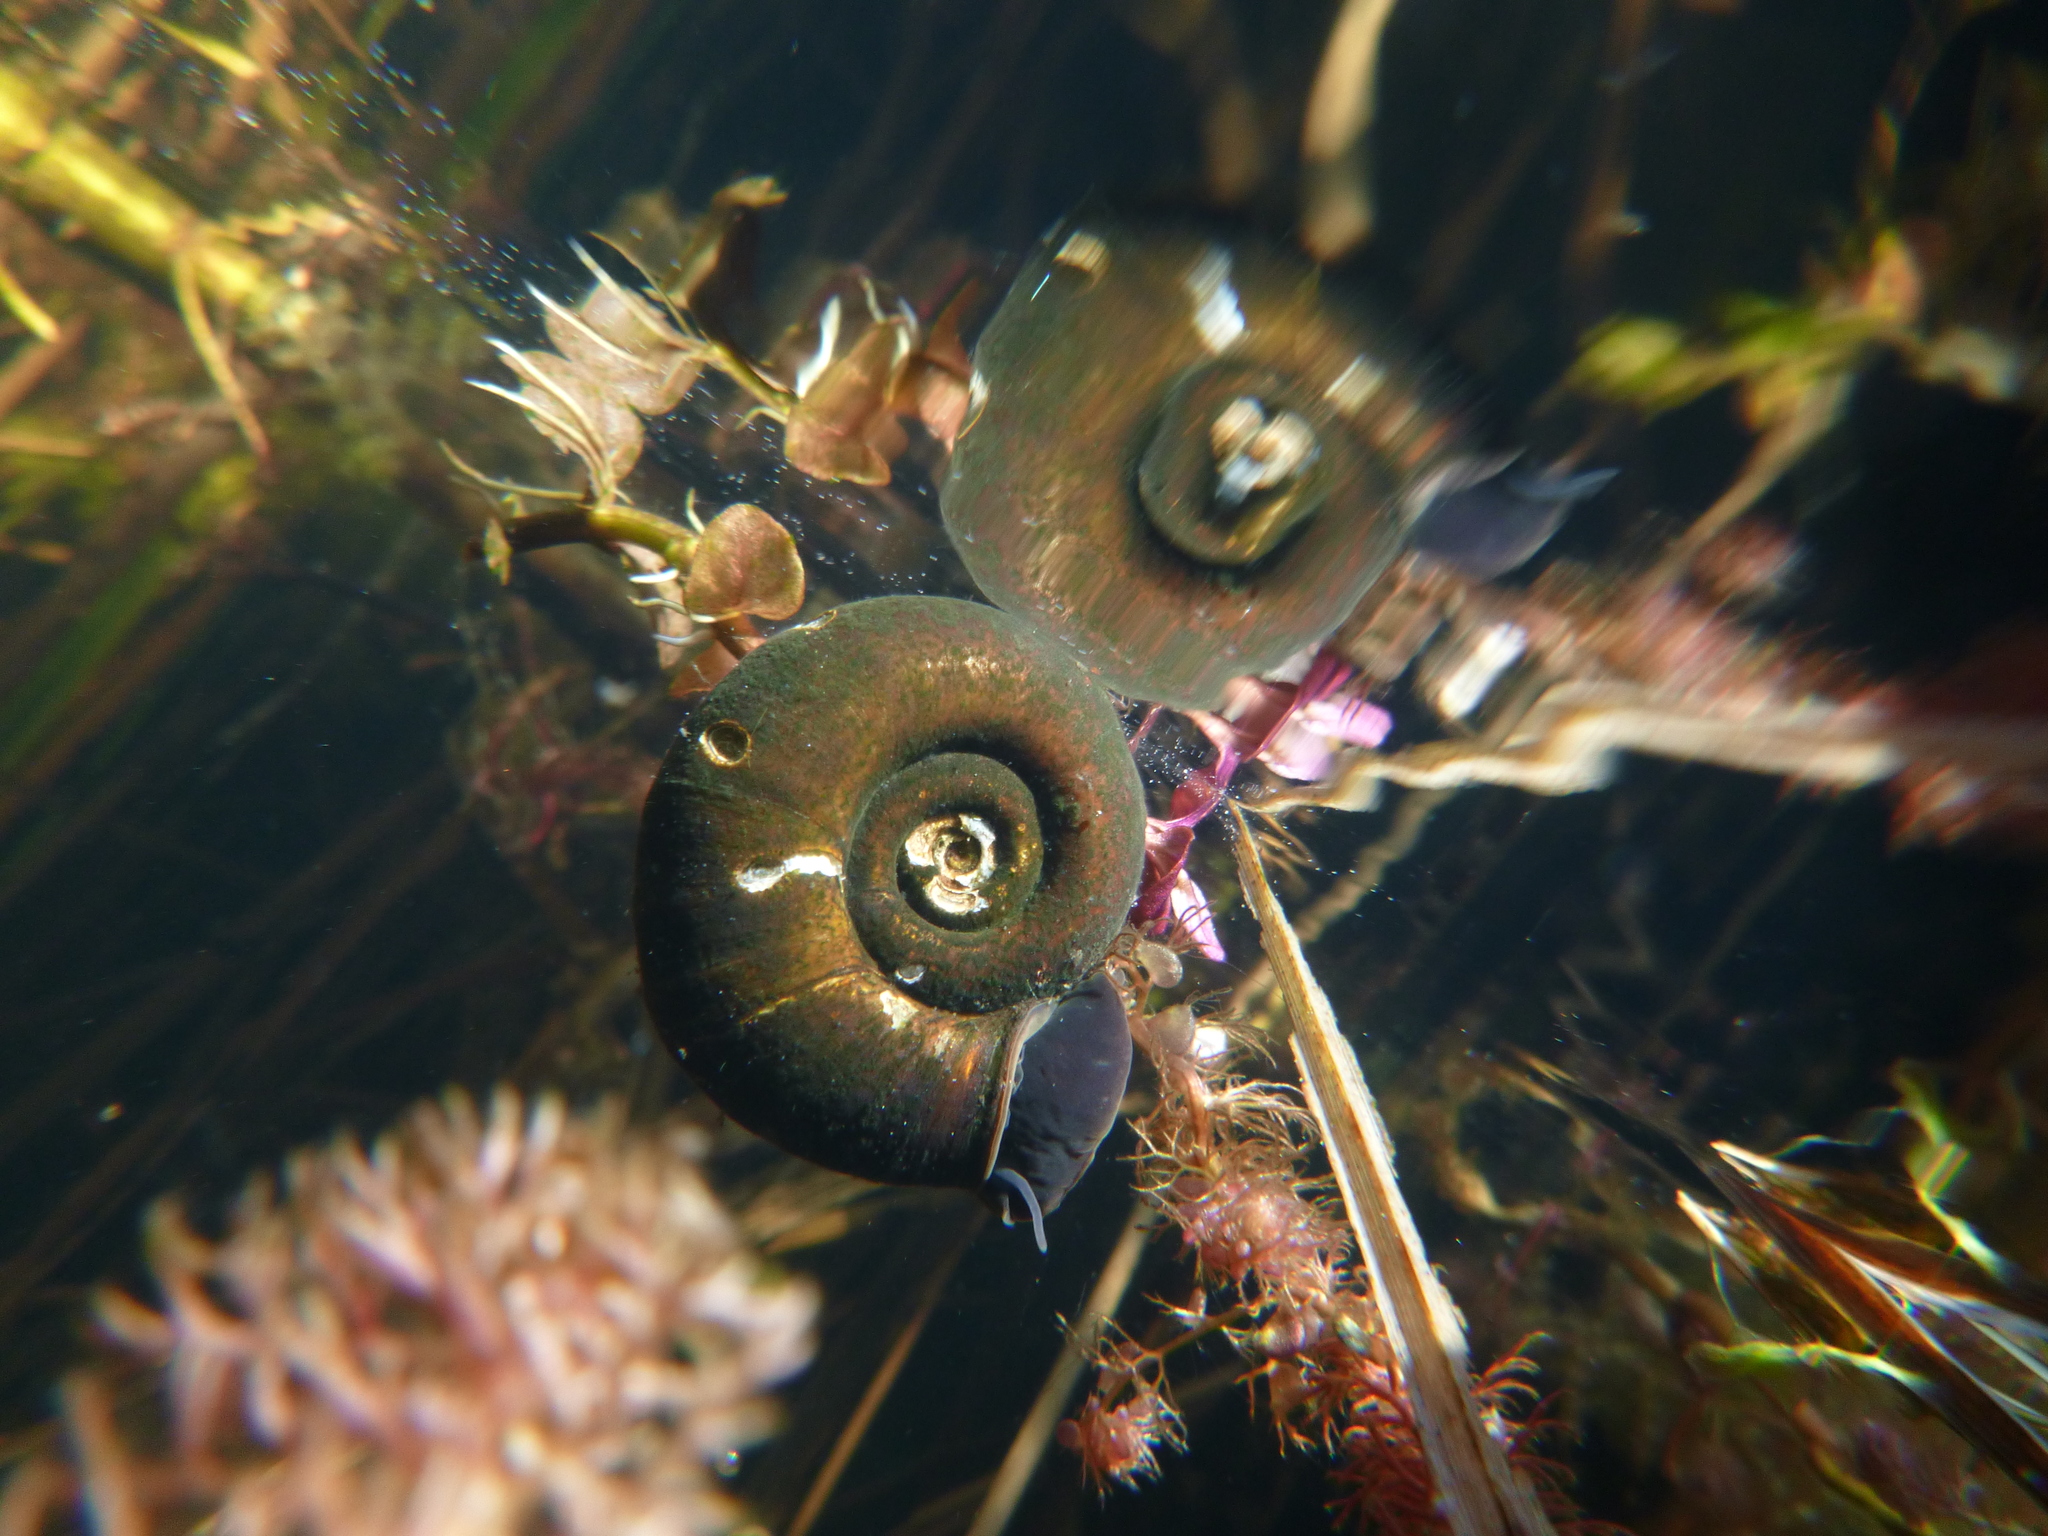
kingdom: Animalia
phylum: Mollusca
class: Gastropoda
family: Planorbidae
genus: Planorbarius
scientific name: Planorbarius corneus
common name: Great ramshorn
